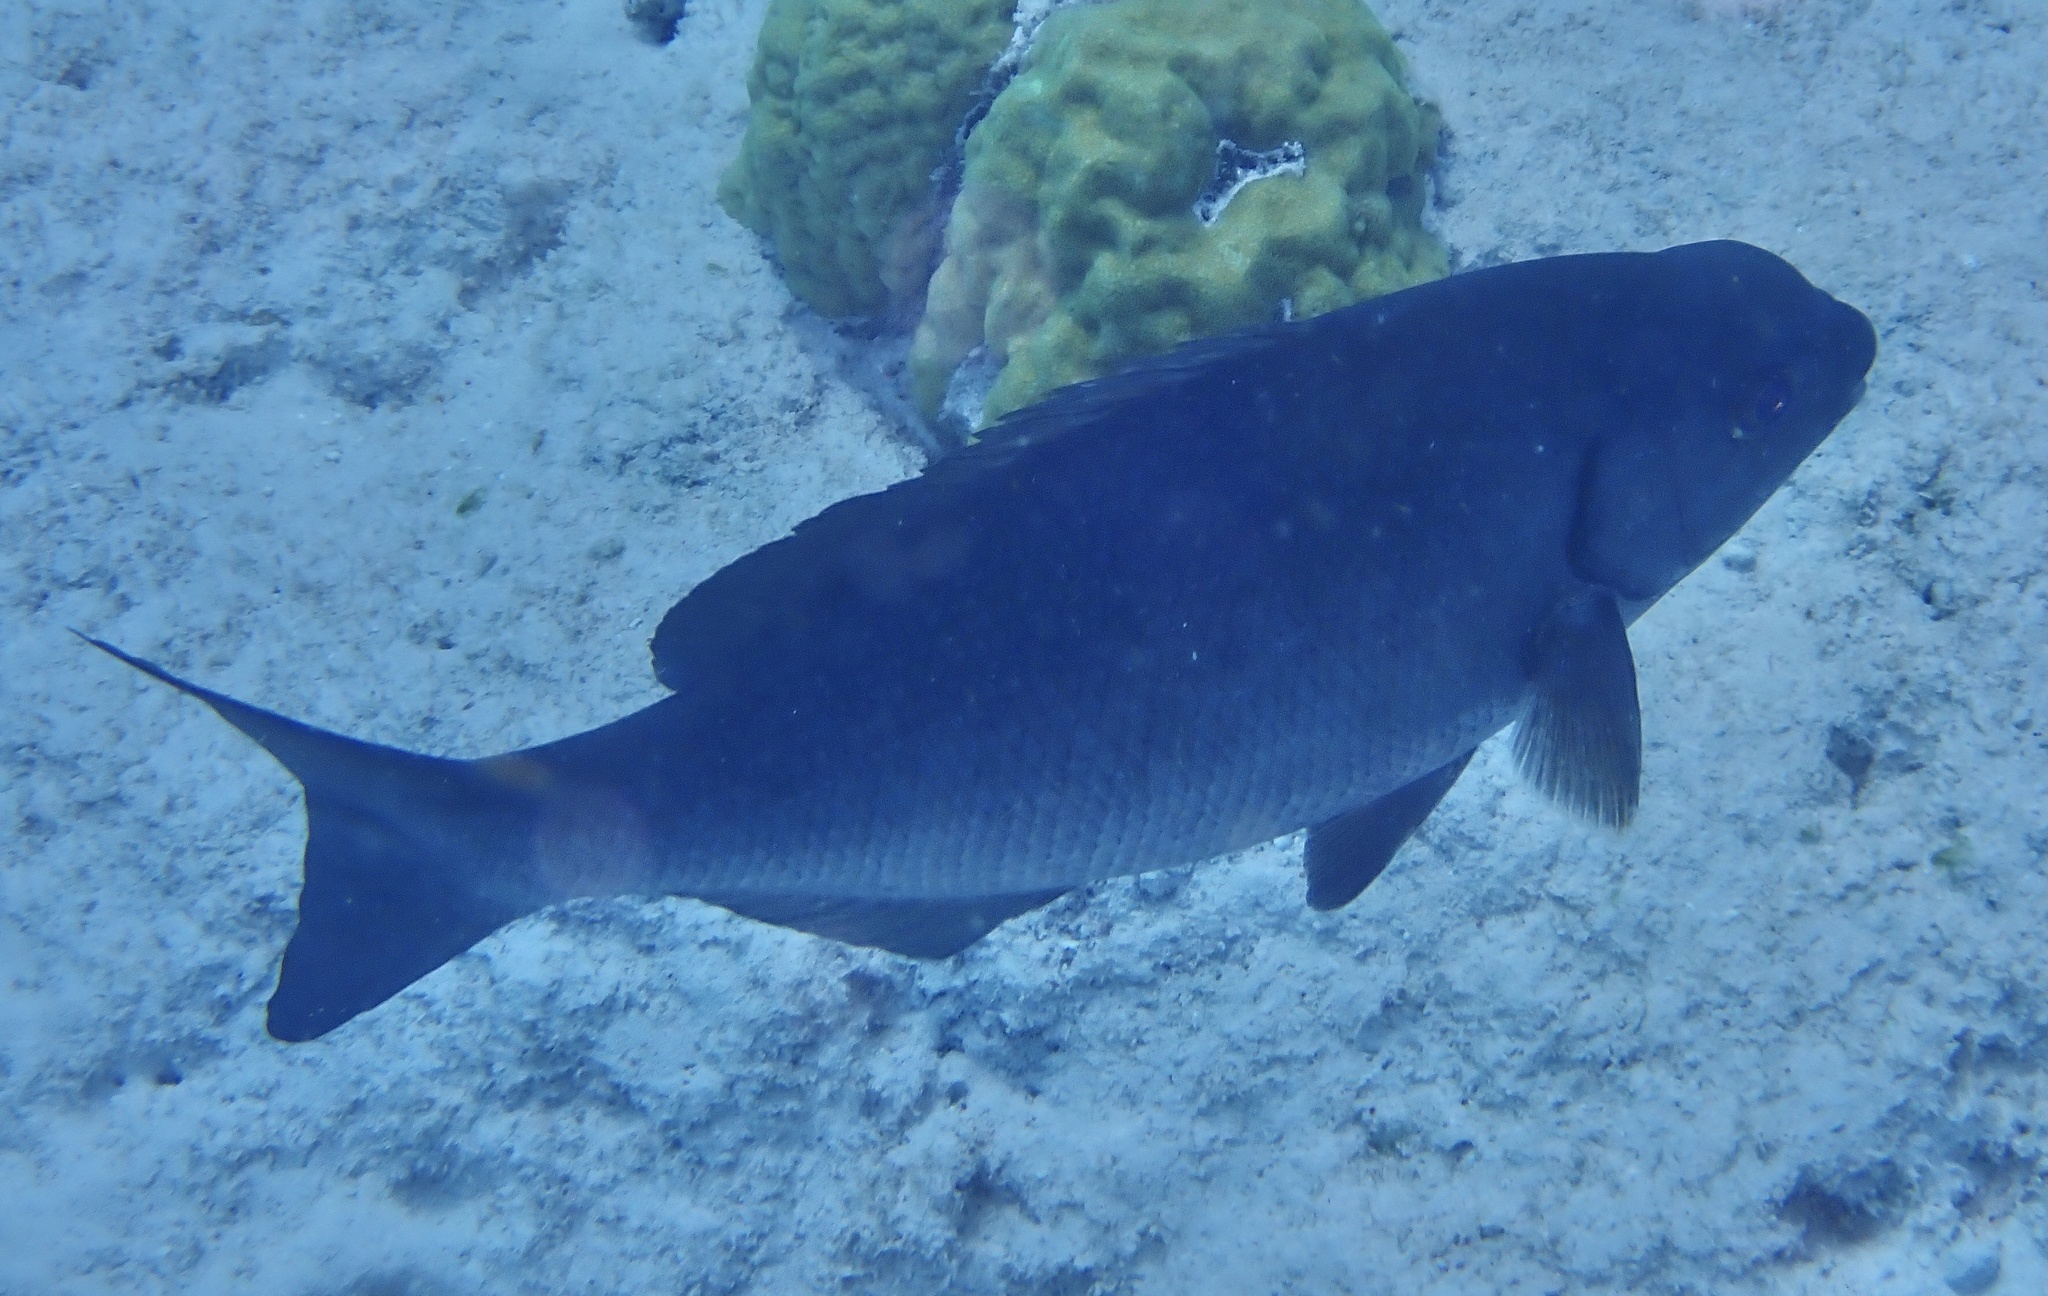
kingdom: Animalia
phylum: Chordata
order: Perciformes
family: Kyphosidae
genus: Kyphosus
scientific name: Kyphosus sectatrix
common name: Bermuda chub
